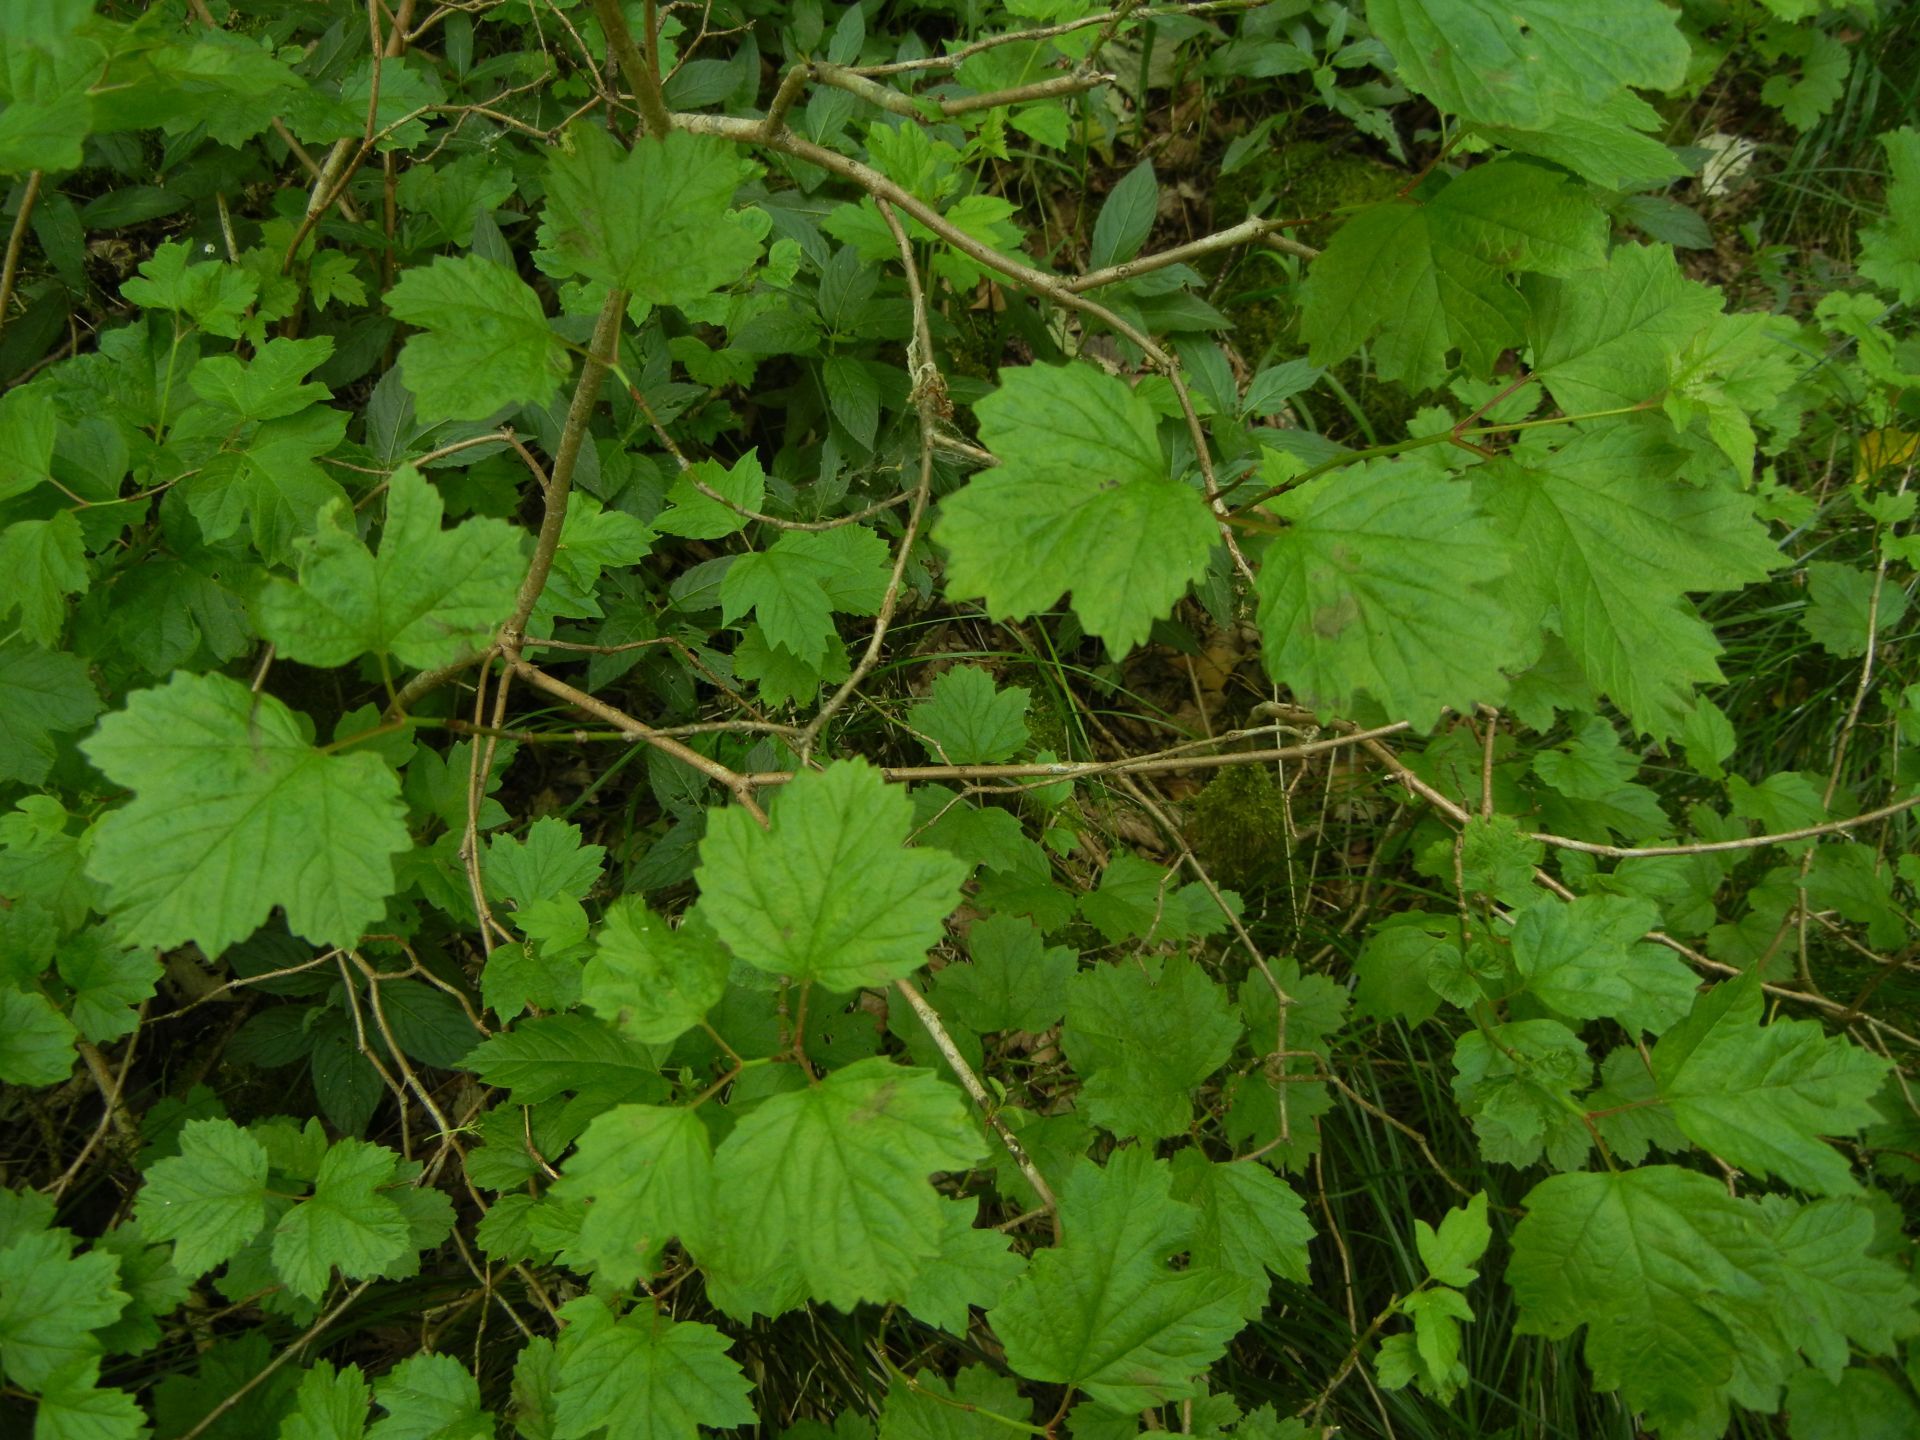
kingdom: Plantae
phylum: Tracheophyta
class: Magnoliopsida
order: Dipsacales
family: Viburnaceae
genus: Viburnum
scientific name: Viburnum opulus
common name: Guelder-rose
